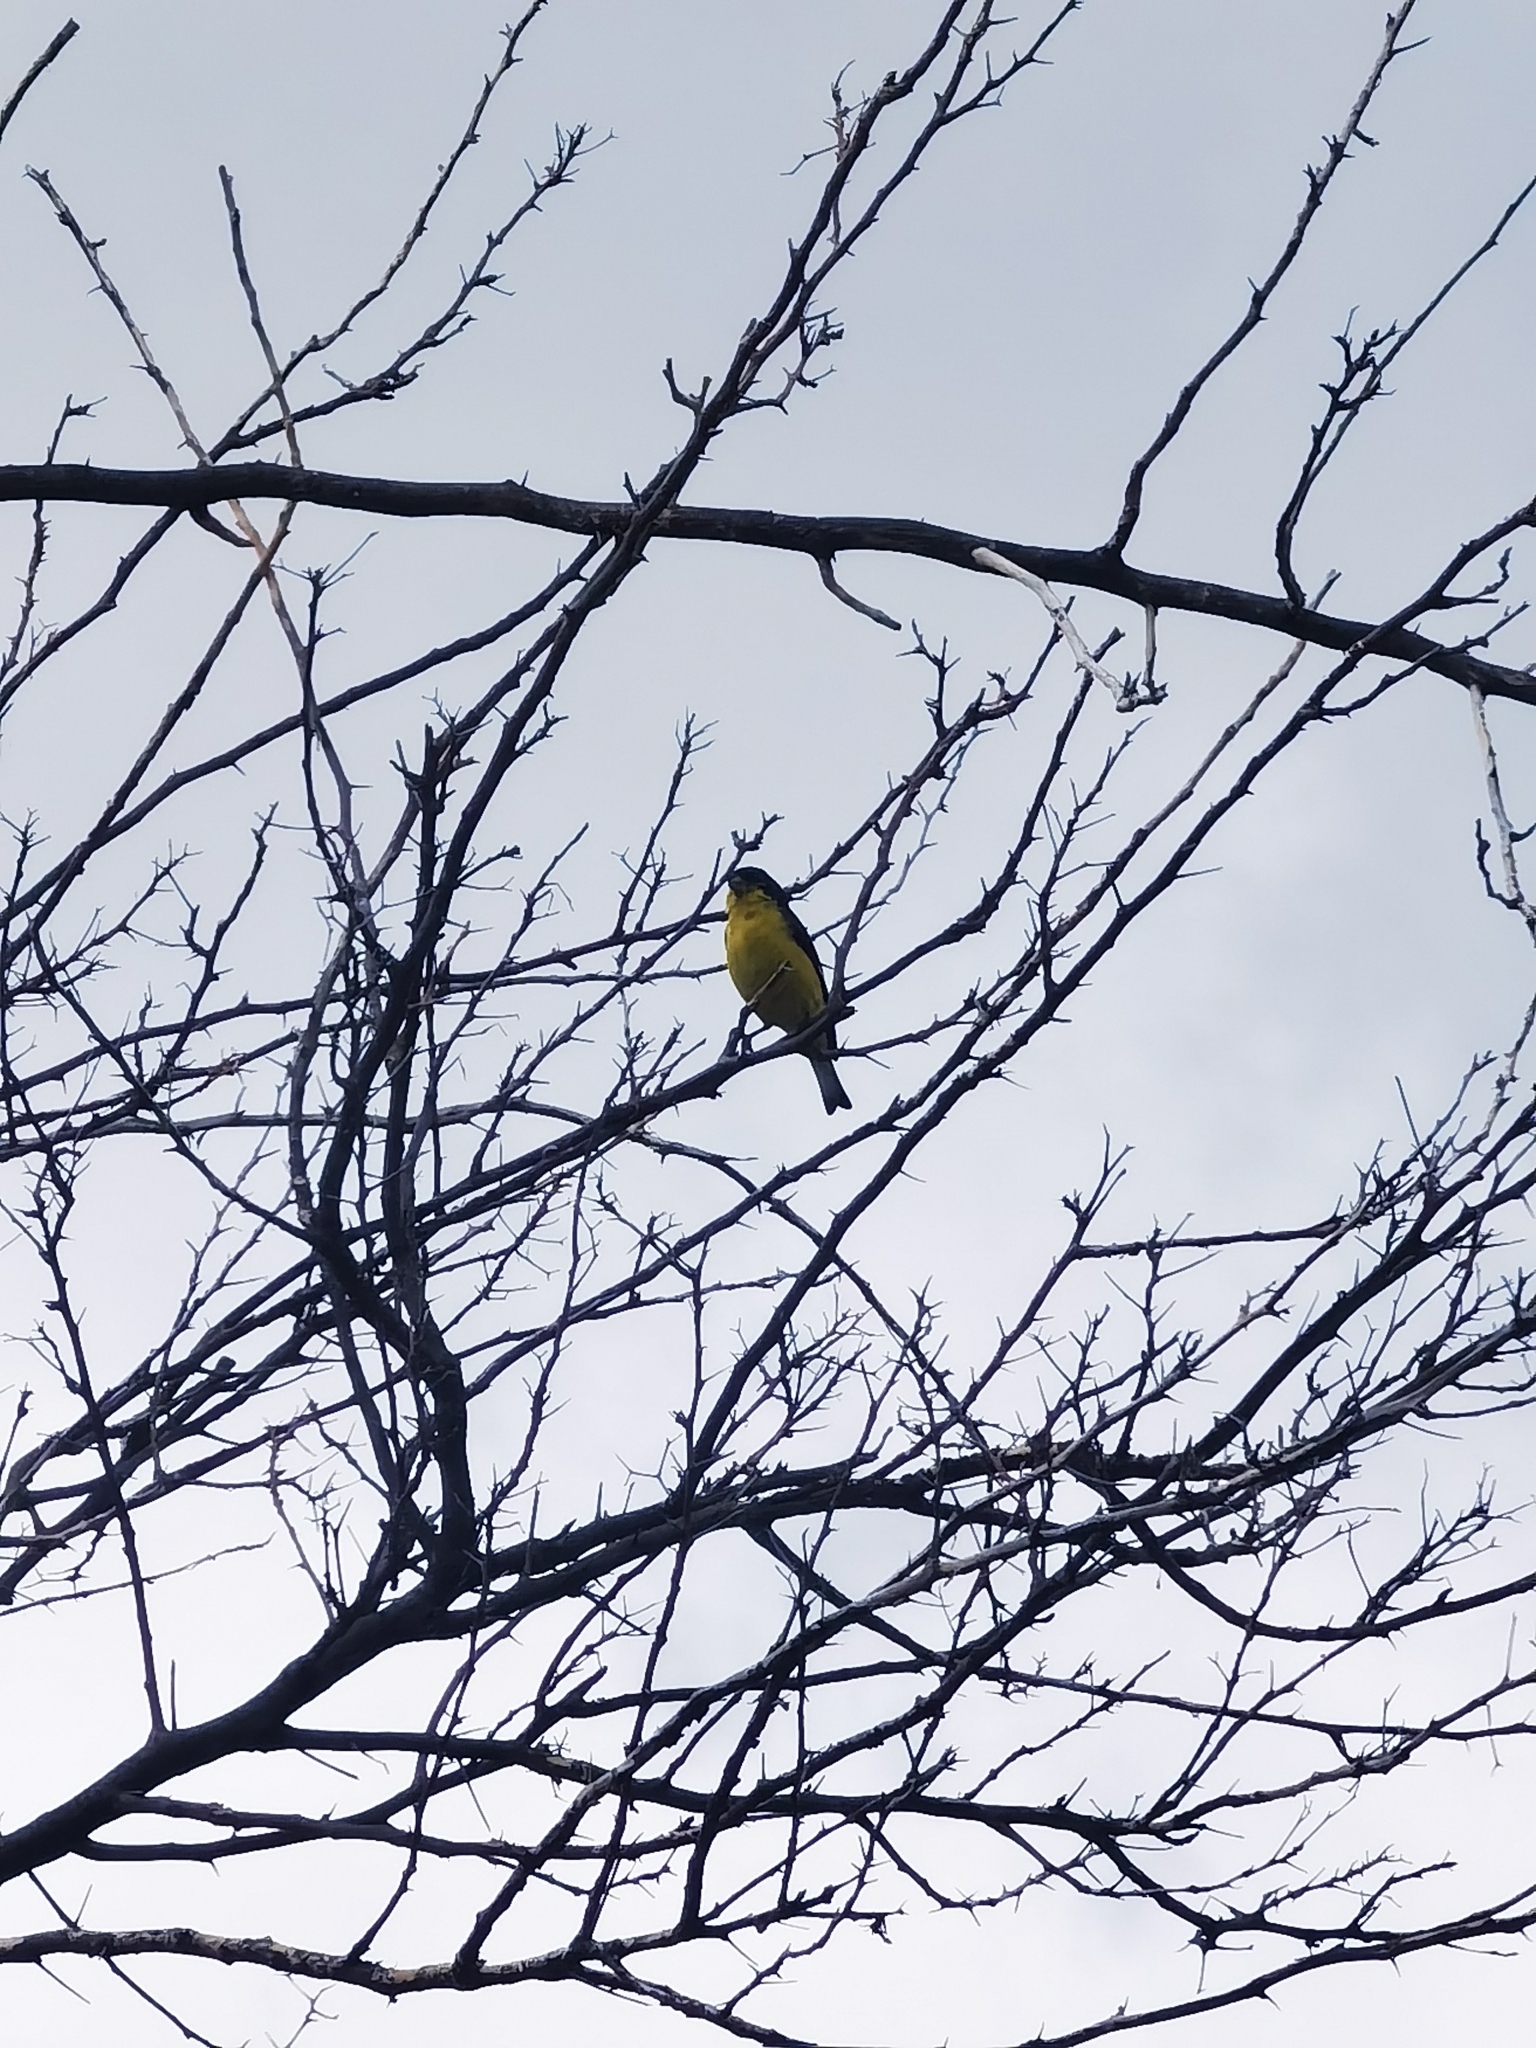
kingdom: Animalia
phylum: Chordata
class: Aves
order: Passeriformes
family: Fringillidae
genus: Spinus
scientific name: Spinus psaltria
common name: Lesser goldfinch
